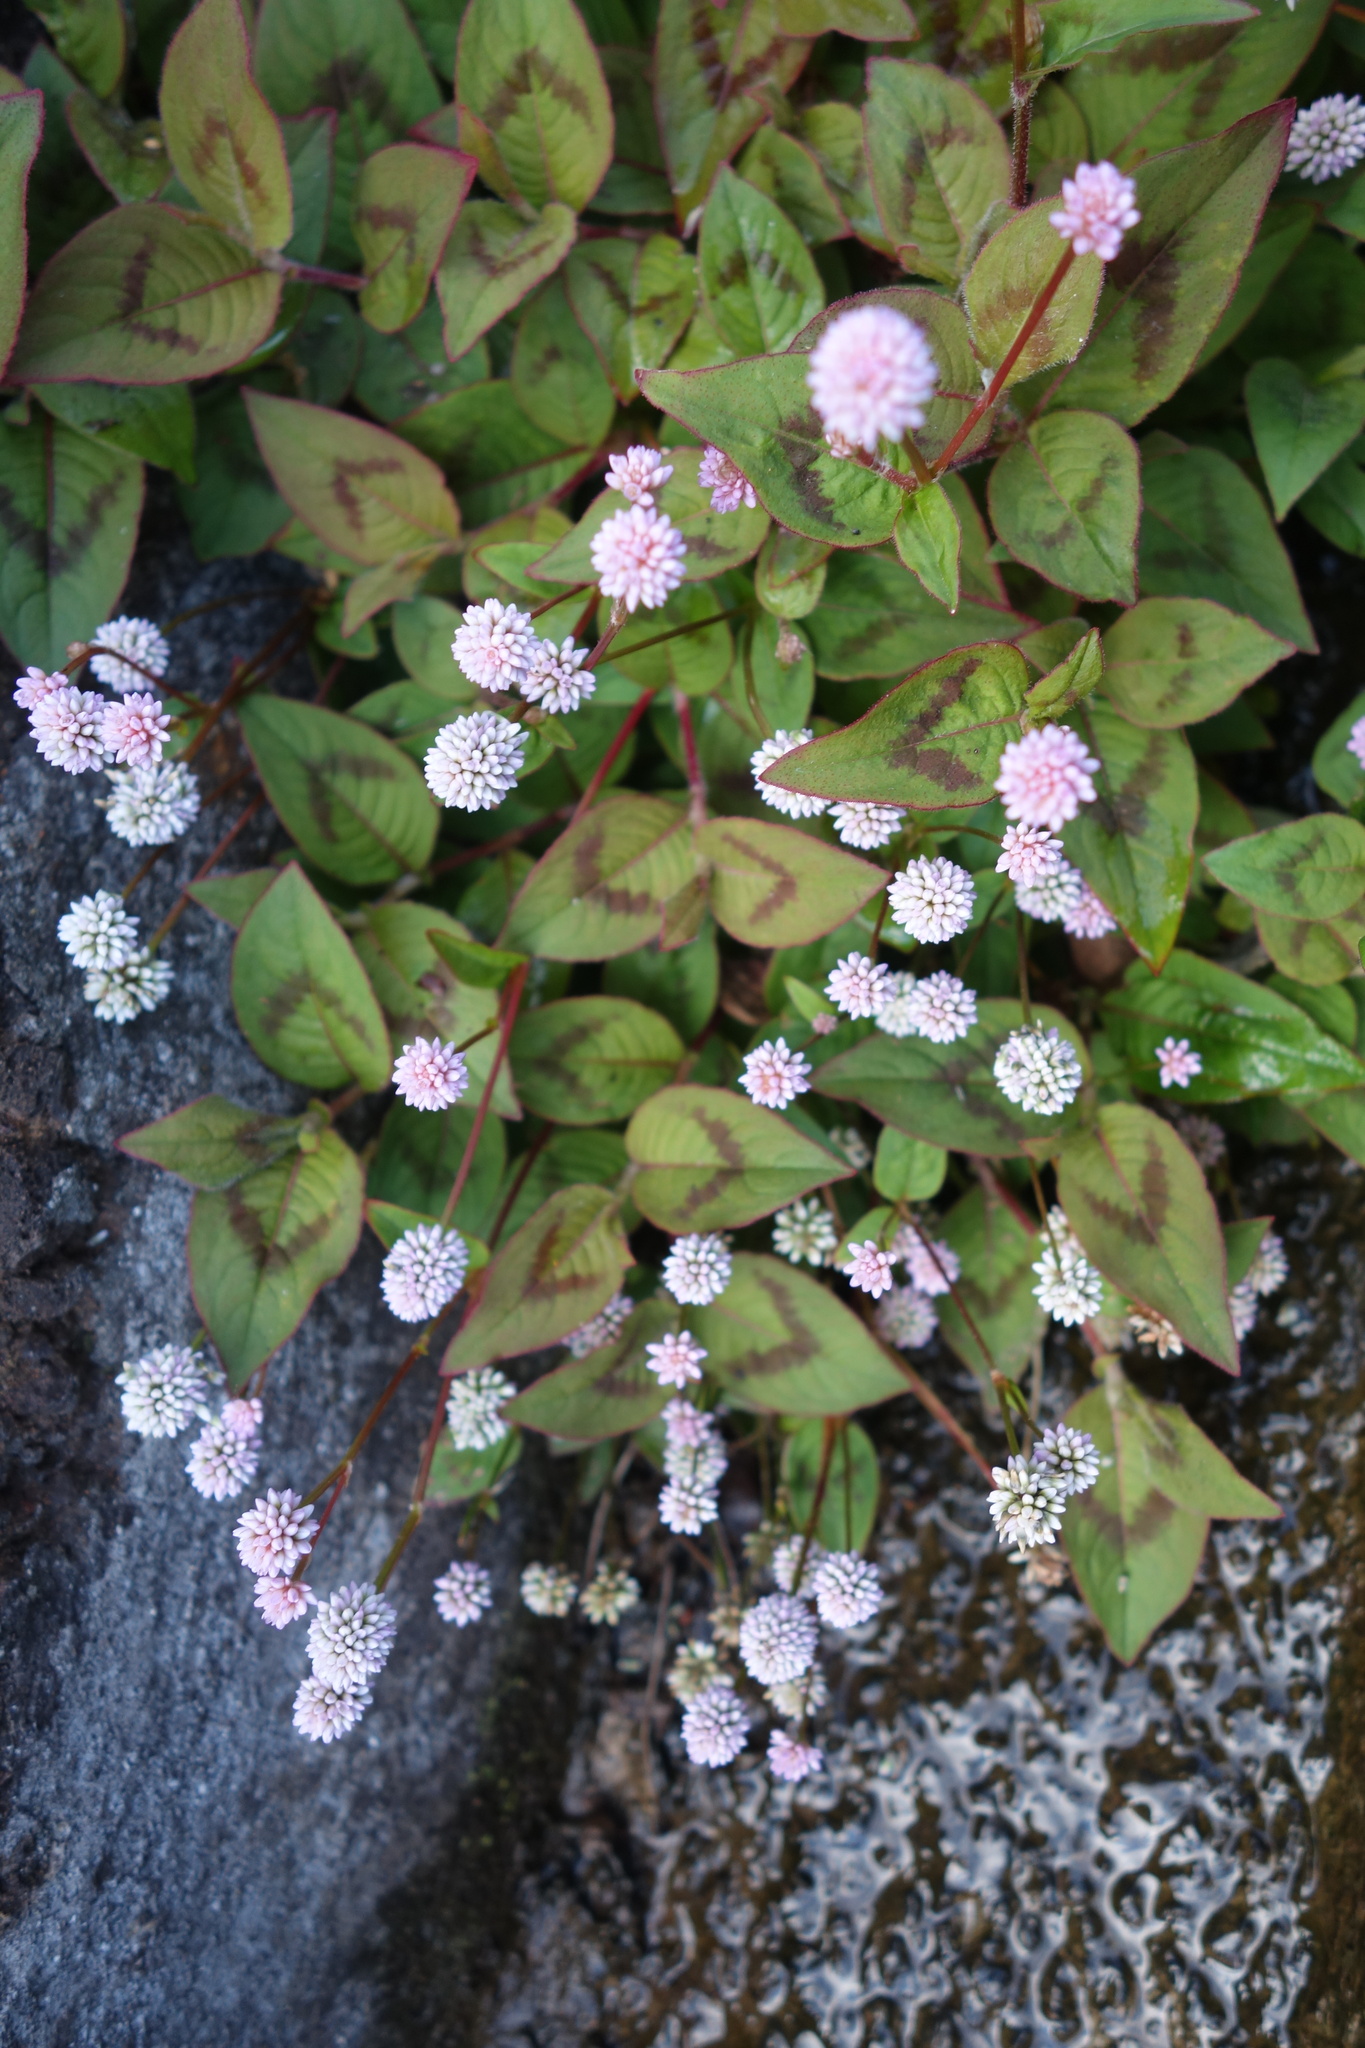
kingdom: Plantae
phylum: Tracheophyta
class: Magnoliopsida
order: Caryophyllales
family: Polygonaceae
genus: Persicaria
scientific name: Persicaria capitata
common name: Pinkhead smartweed
